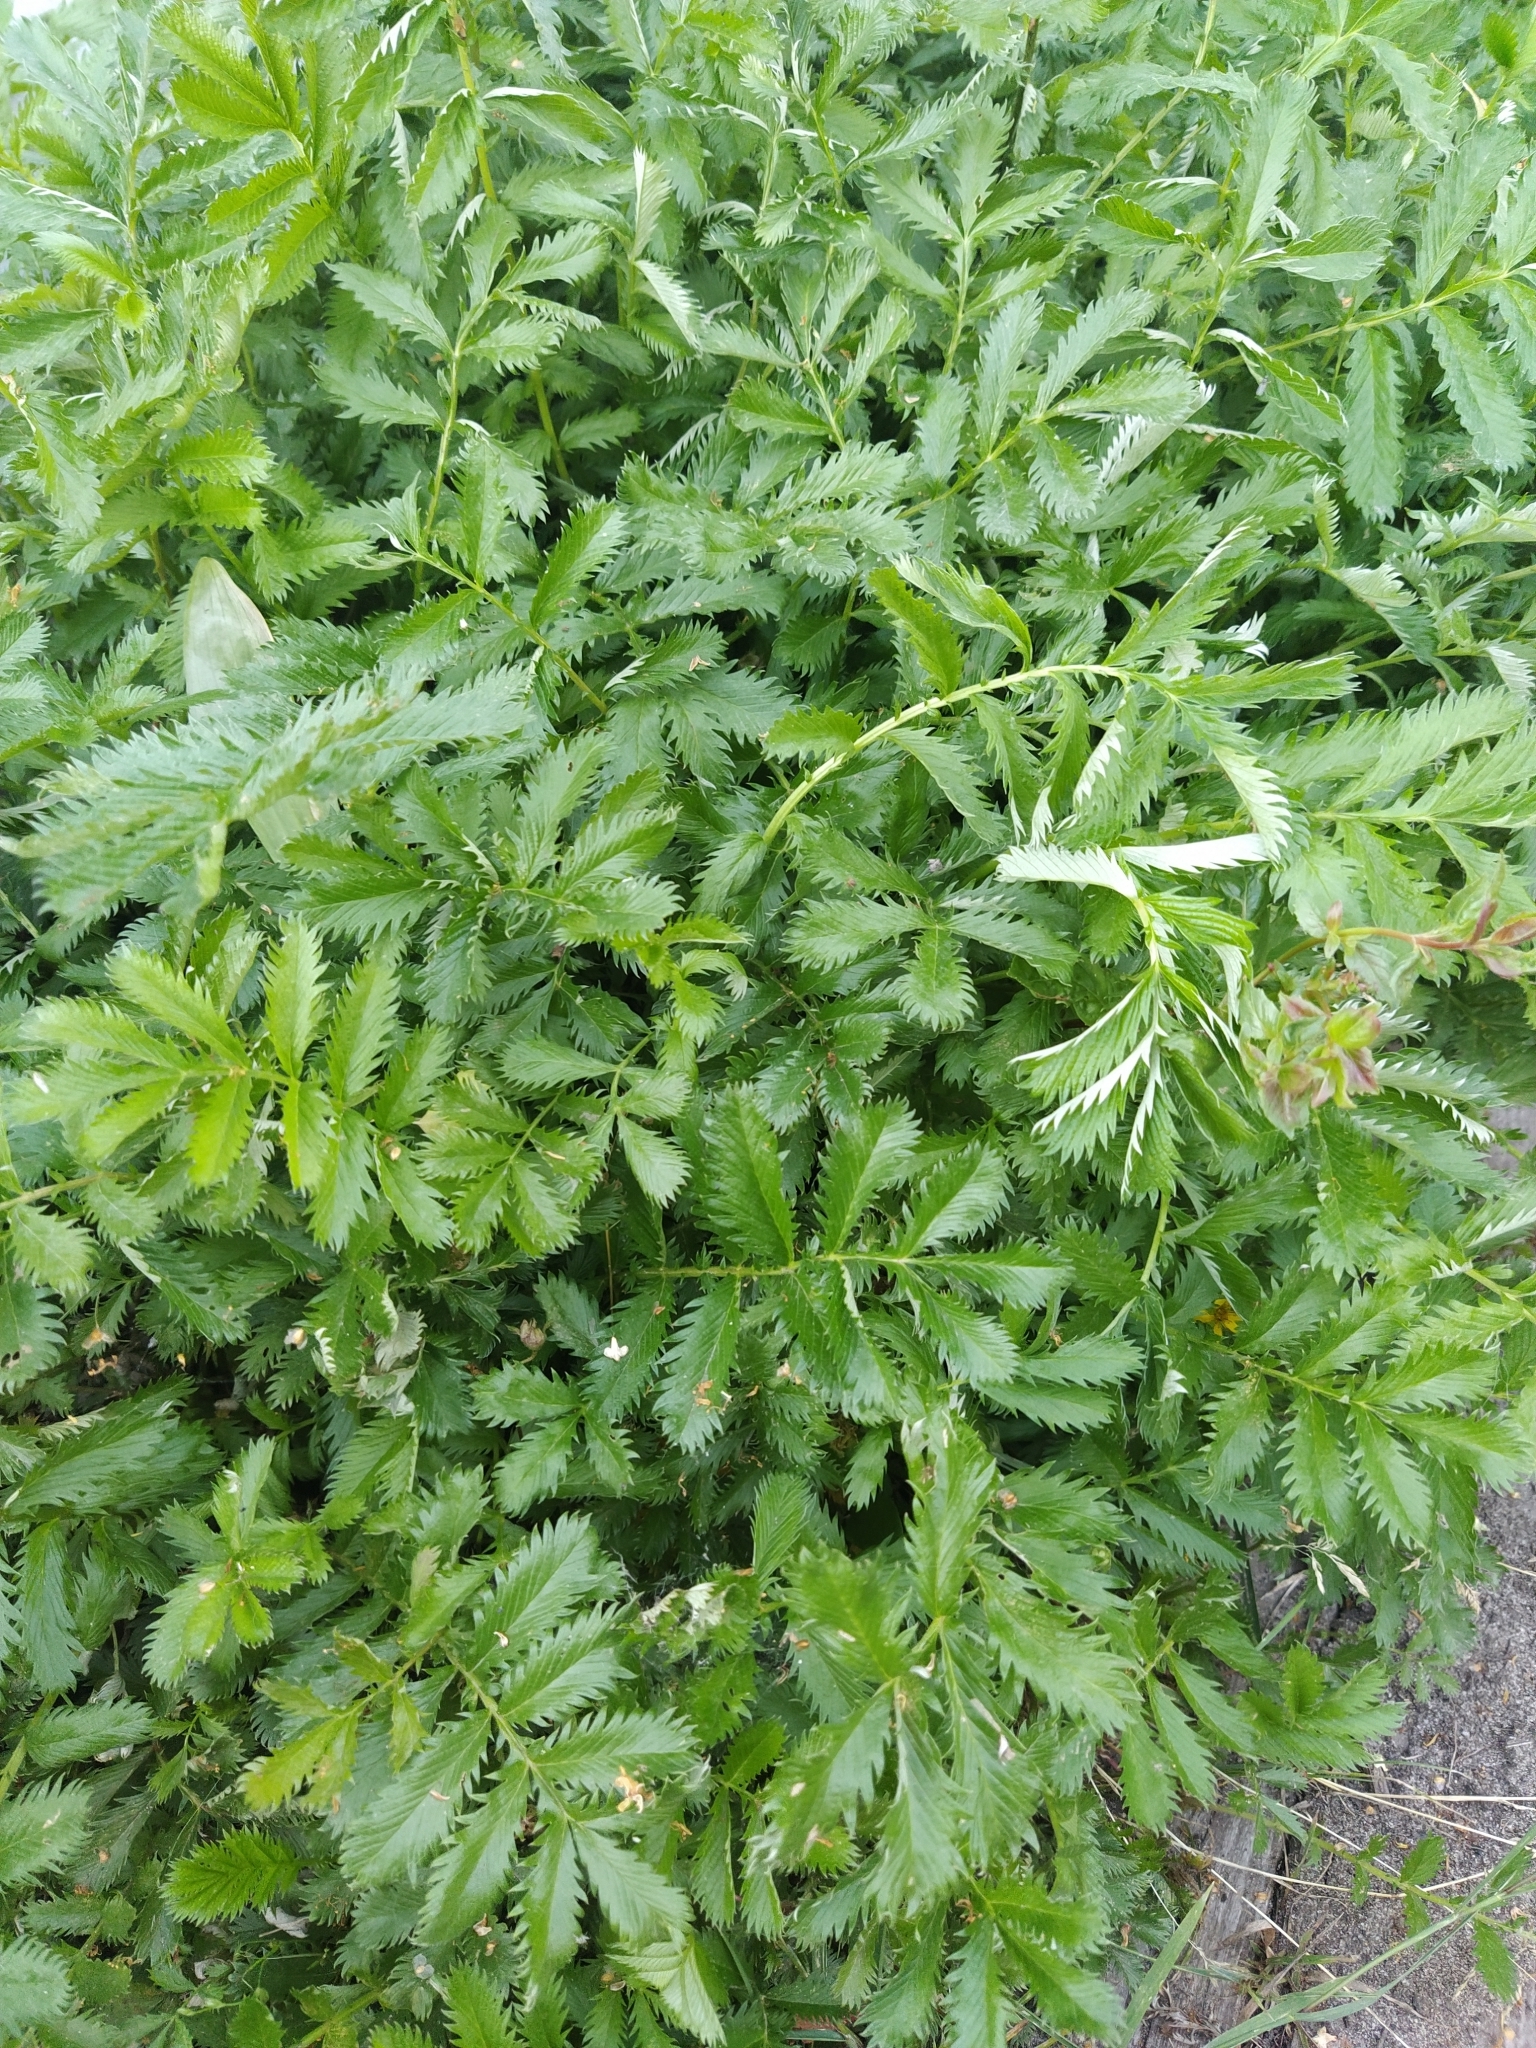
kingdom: Plantae
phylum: Tracheophyta
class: Magnoliopsida
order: Rosales
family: Rosaceae
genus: Argentina
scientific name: Argentina anserina
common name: Common silverweed
